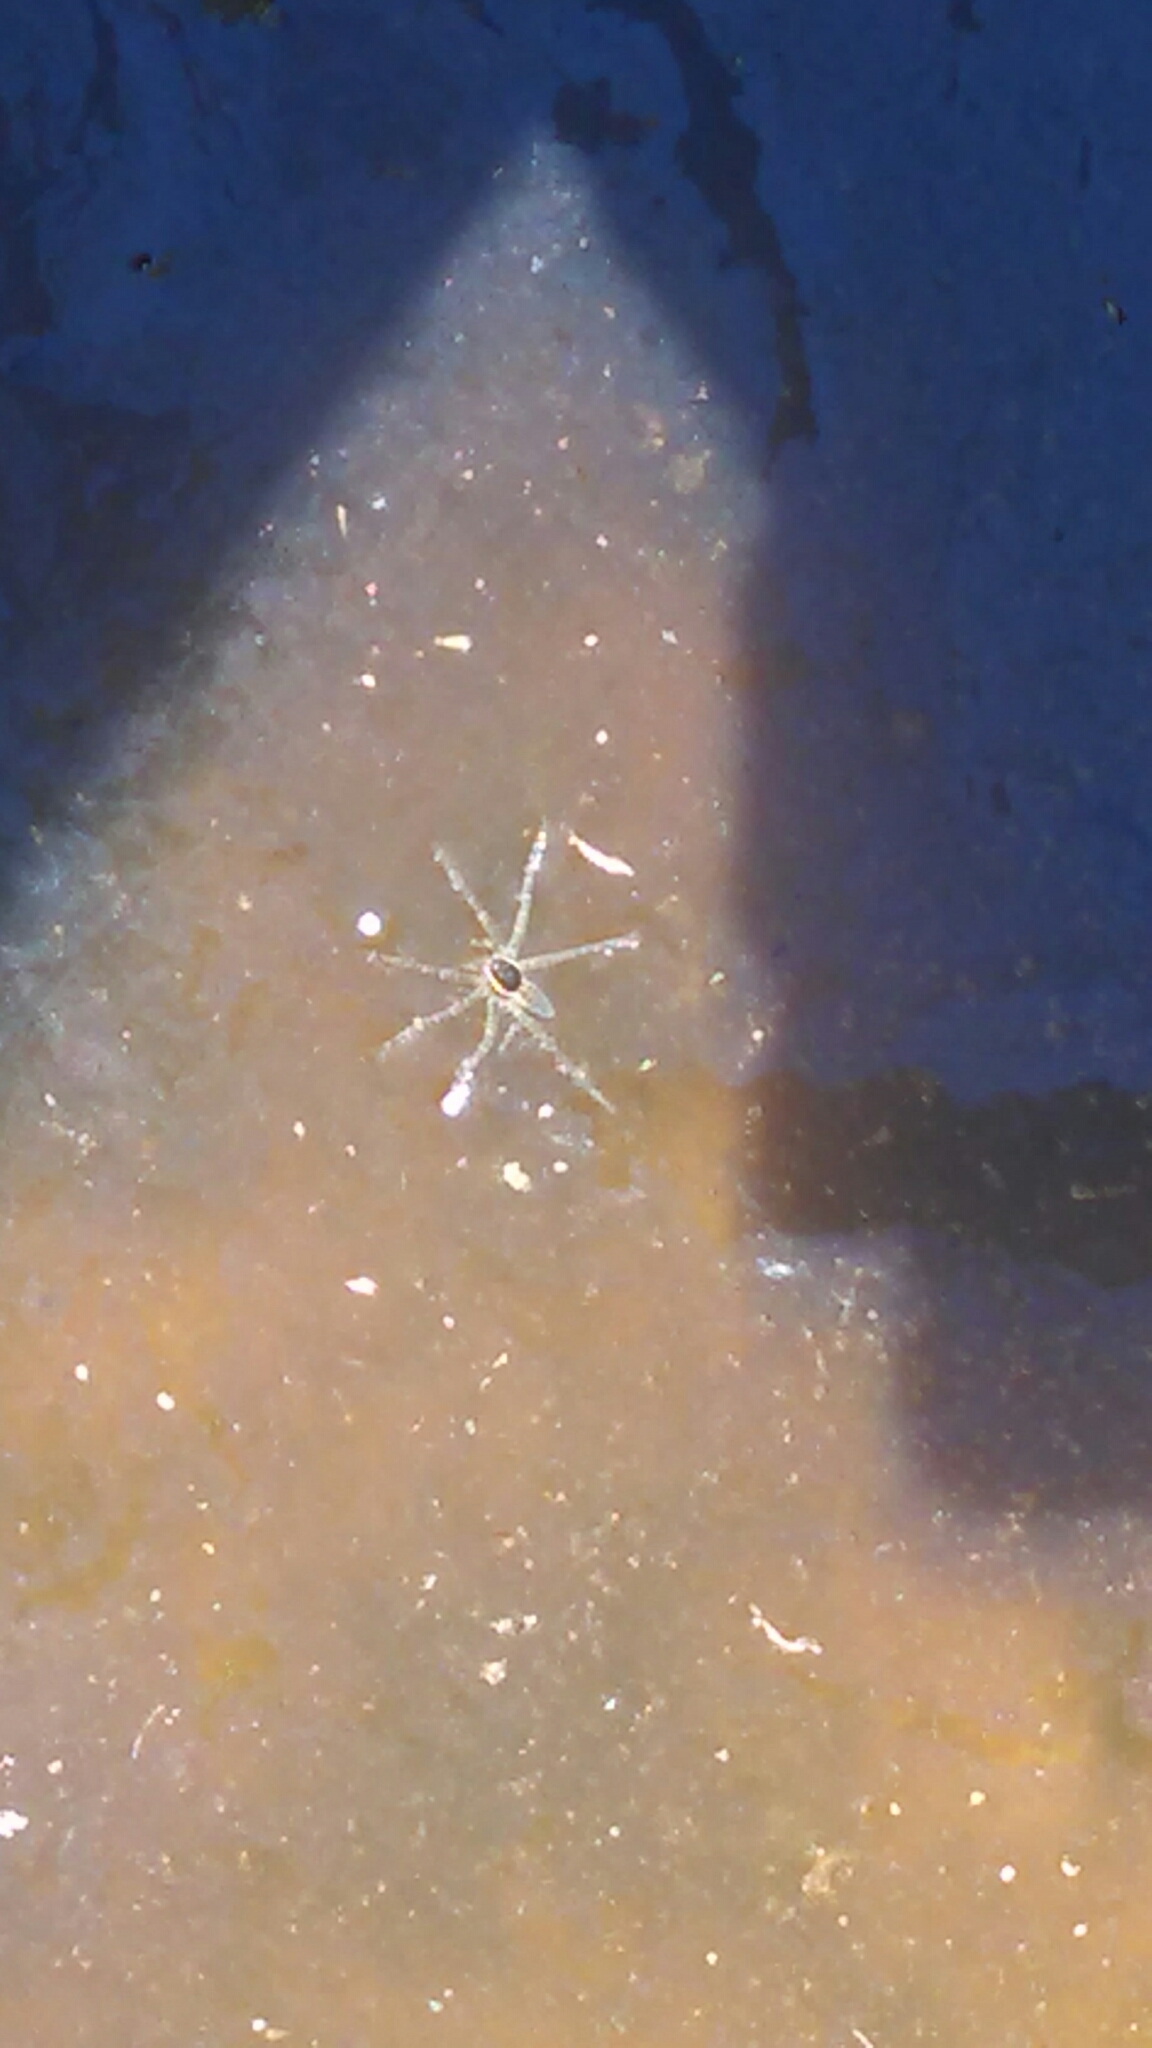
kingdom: Animalia
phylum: Arthropoda
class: Arachnida
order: Araneae
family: Pisauridae
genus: Dolomedes
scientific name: Dolomedes triton
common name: Six-spotted fishing spider
